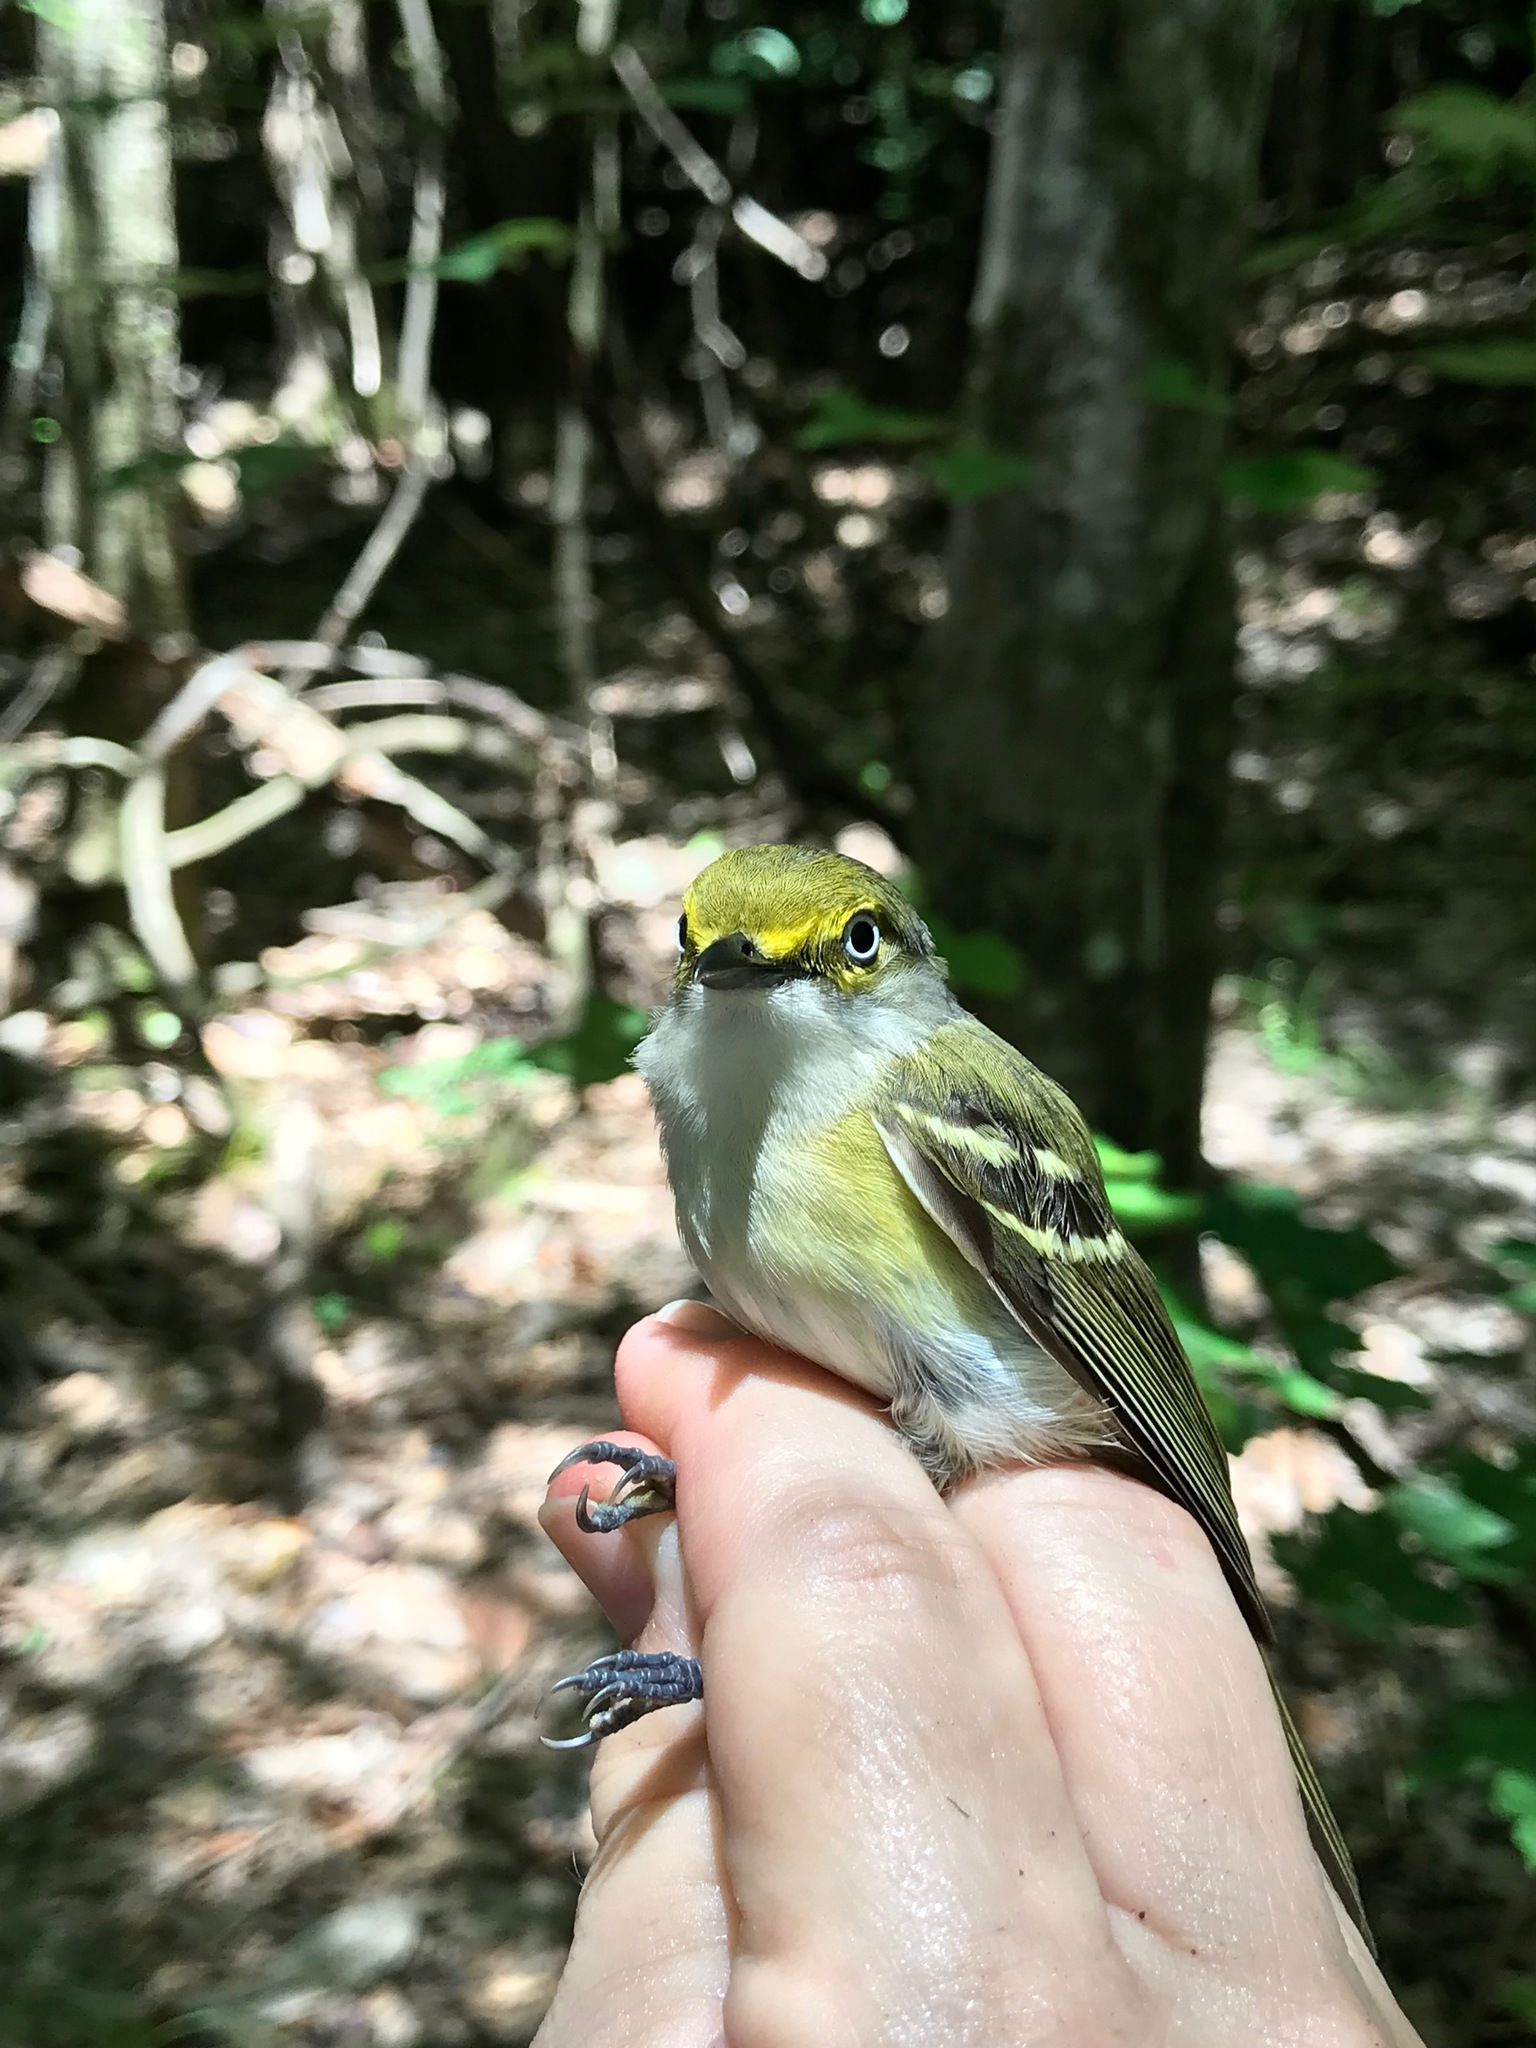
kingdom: Animalia
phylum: Chordata
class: Aves
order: Passeriformes
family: Vireonidae
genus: Vireo
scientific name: Vireo griseus
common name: White-eyed vireo
